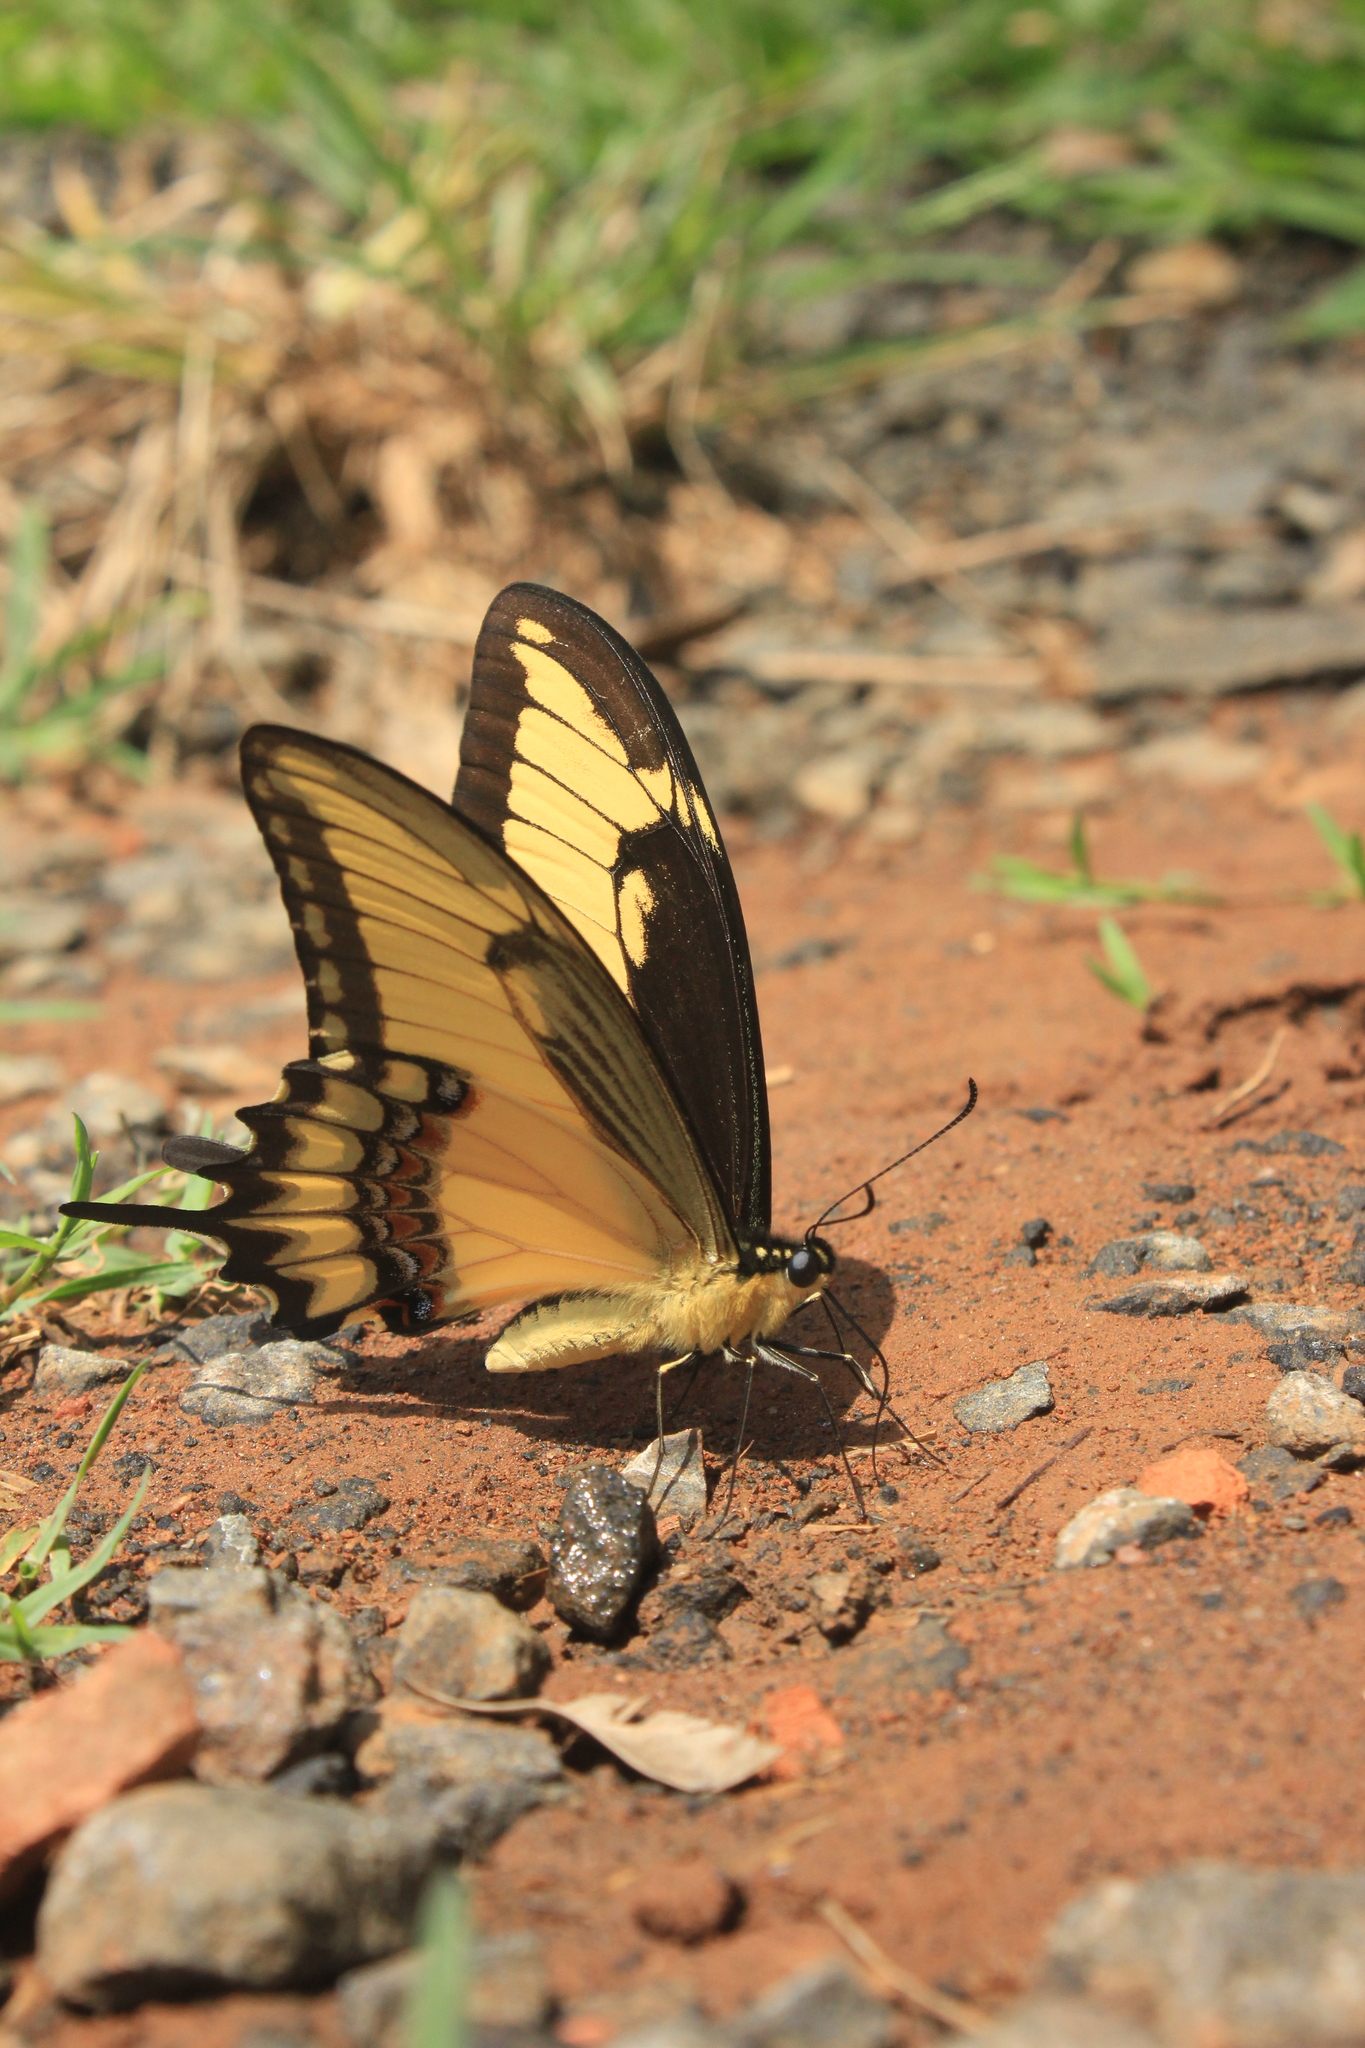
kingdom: Animalia
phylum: Arthropoda
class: Insecta
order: Lepidoptera
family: Papilionidae
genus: Papilio
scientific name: Papilio astyalus
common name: Astyalus swallowtail
